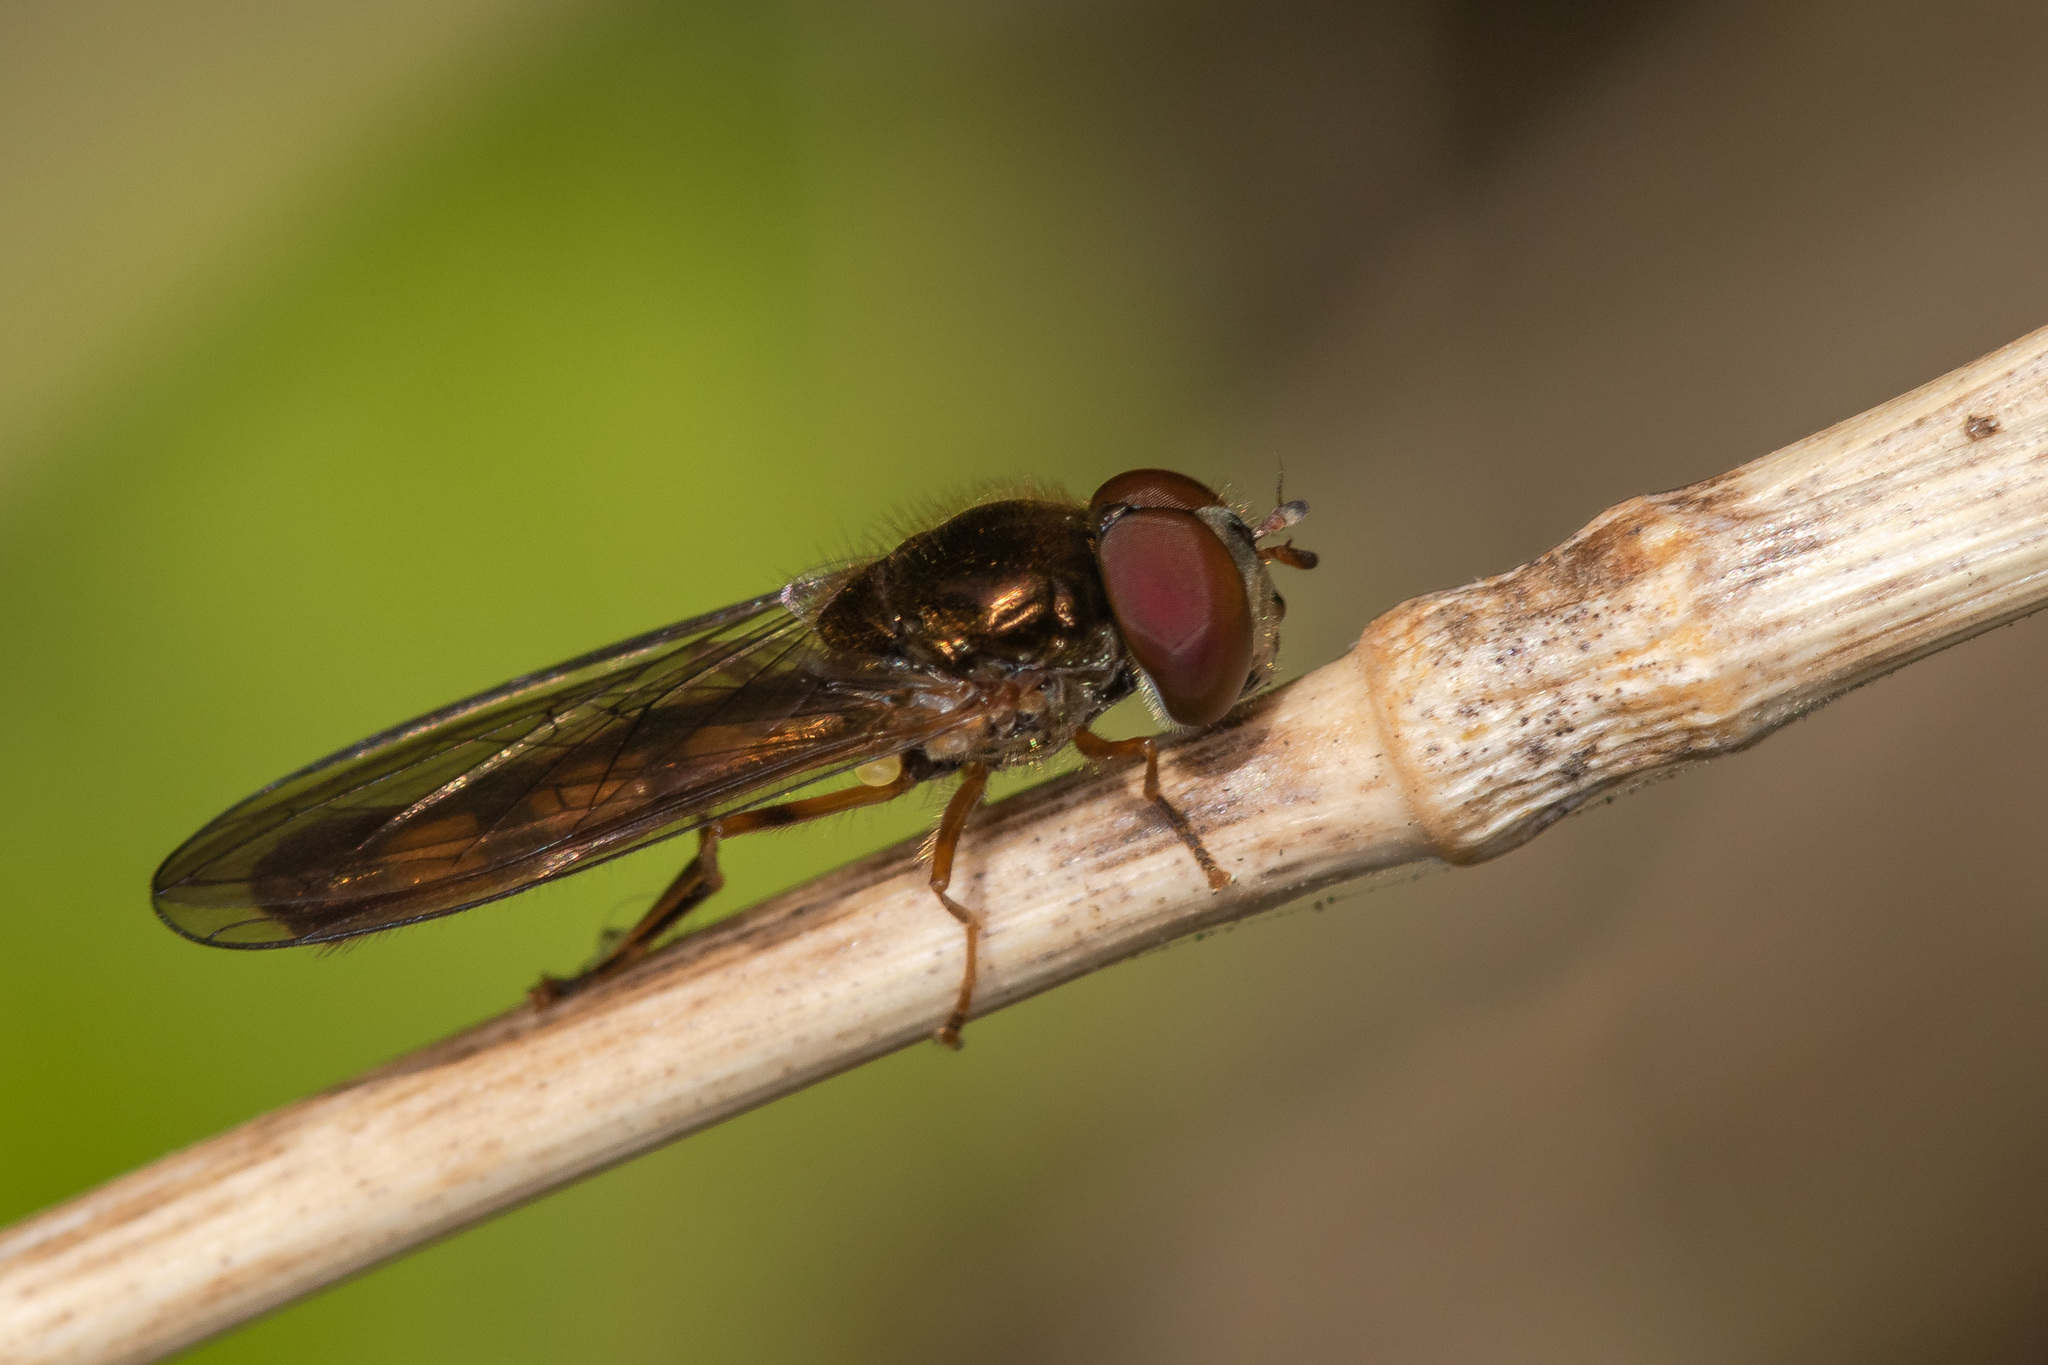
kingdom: Animalia
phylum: Arthropoda
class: Insecta
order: Diptera
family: Syrphidae
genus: Melanostoma
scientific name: Melanostoma scalare
